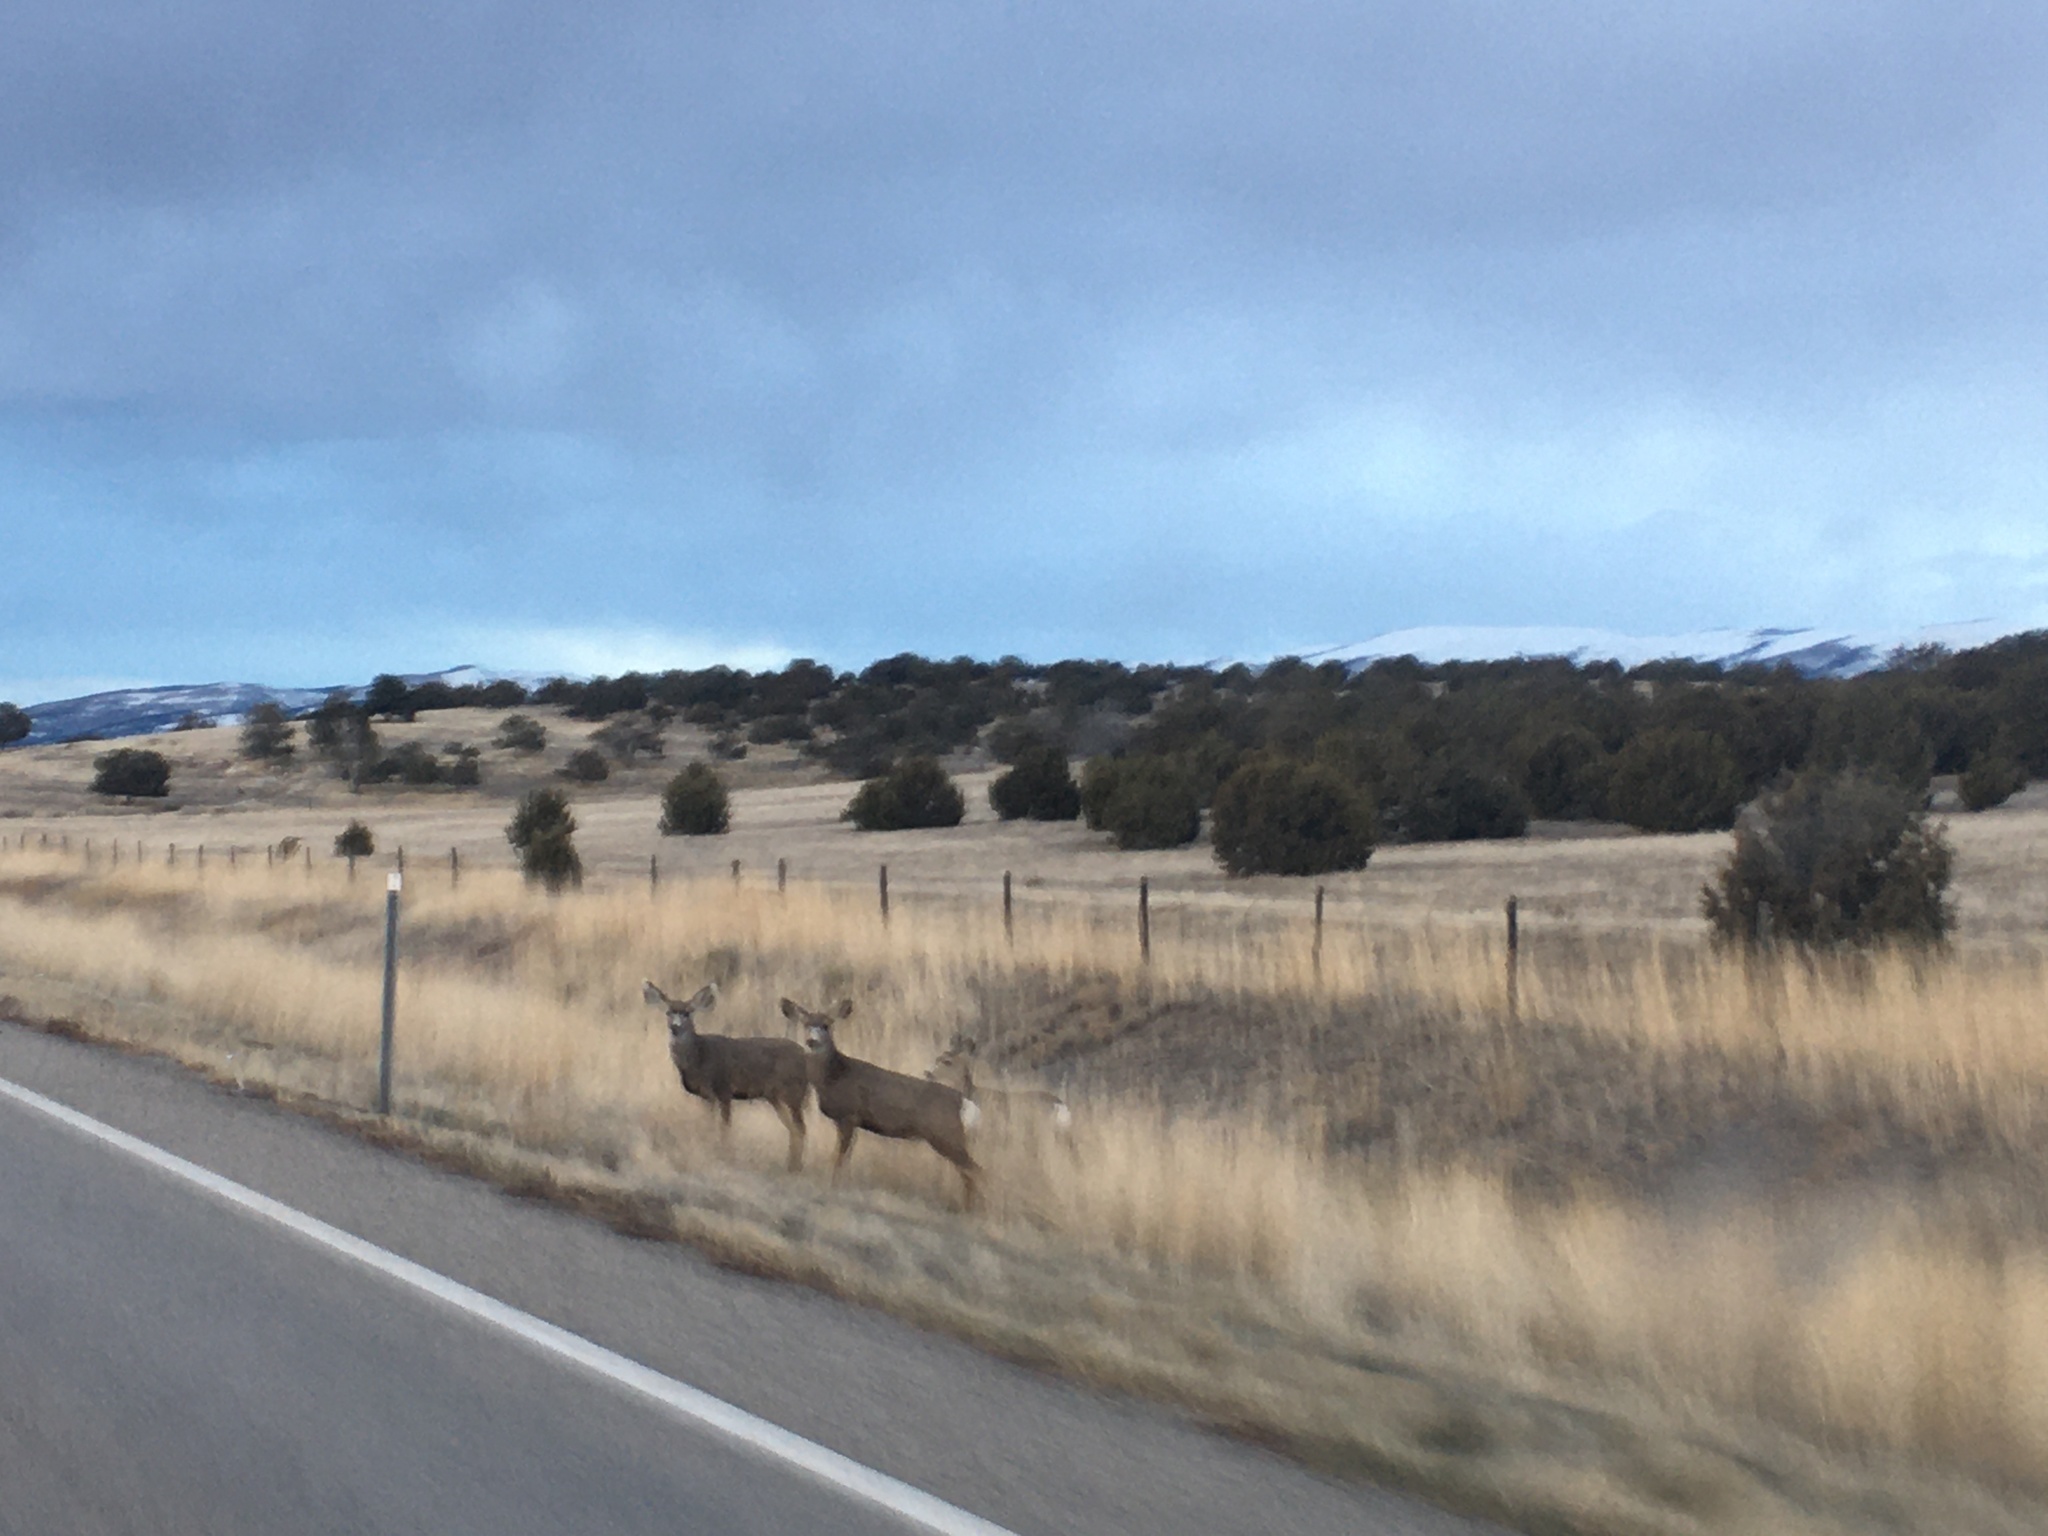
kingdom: Animalia
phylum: Chordata
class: Mammalia
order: Artiodactyla
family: Cervidae
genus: Odocoileus
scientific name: Odocoileus hemionus
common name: Mule deer
